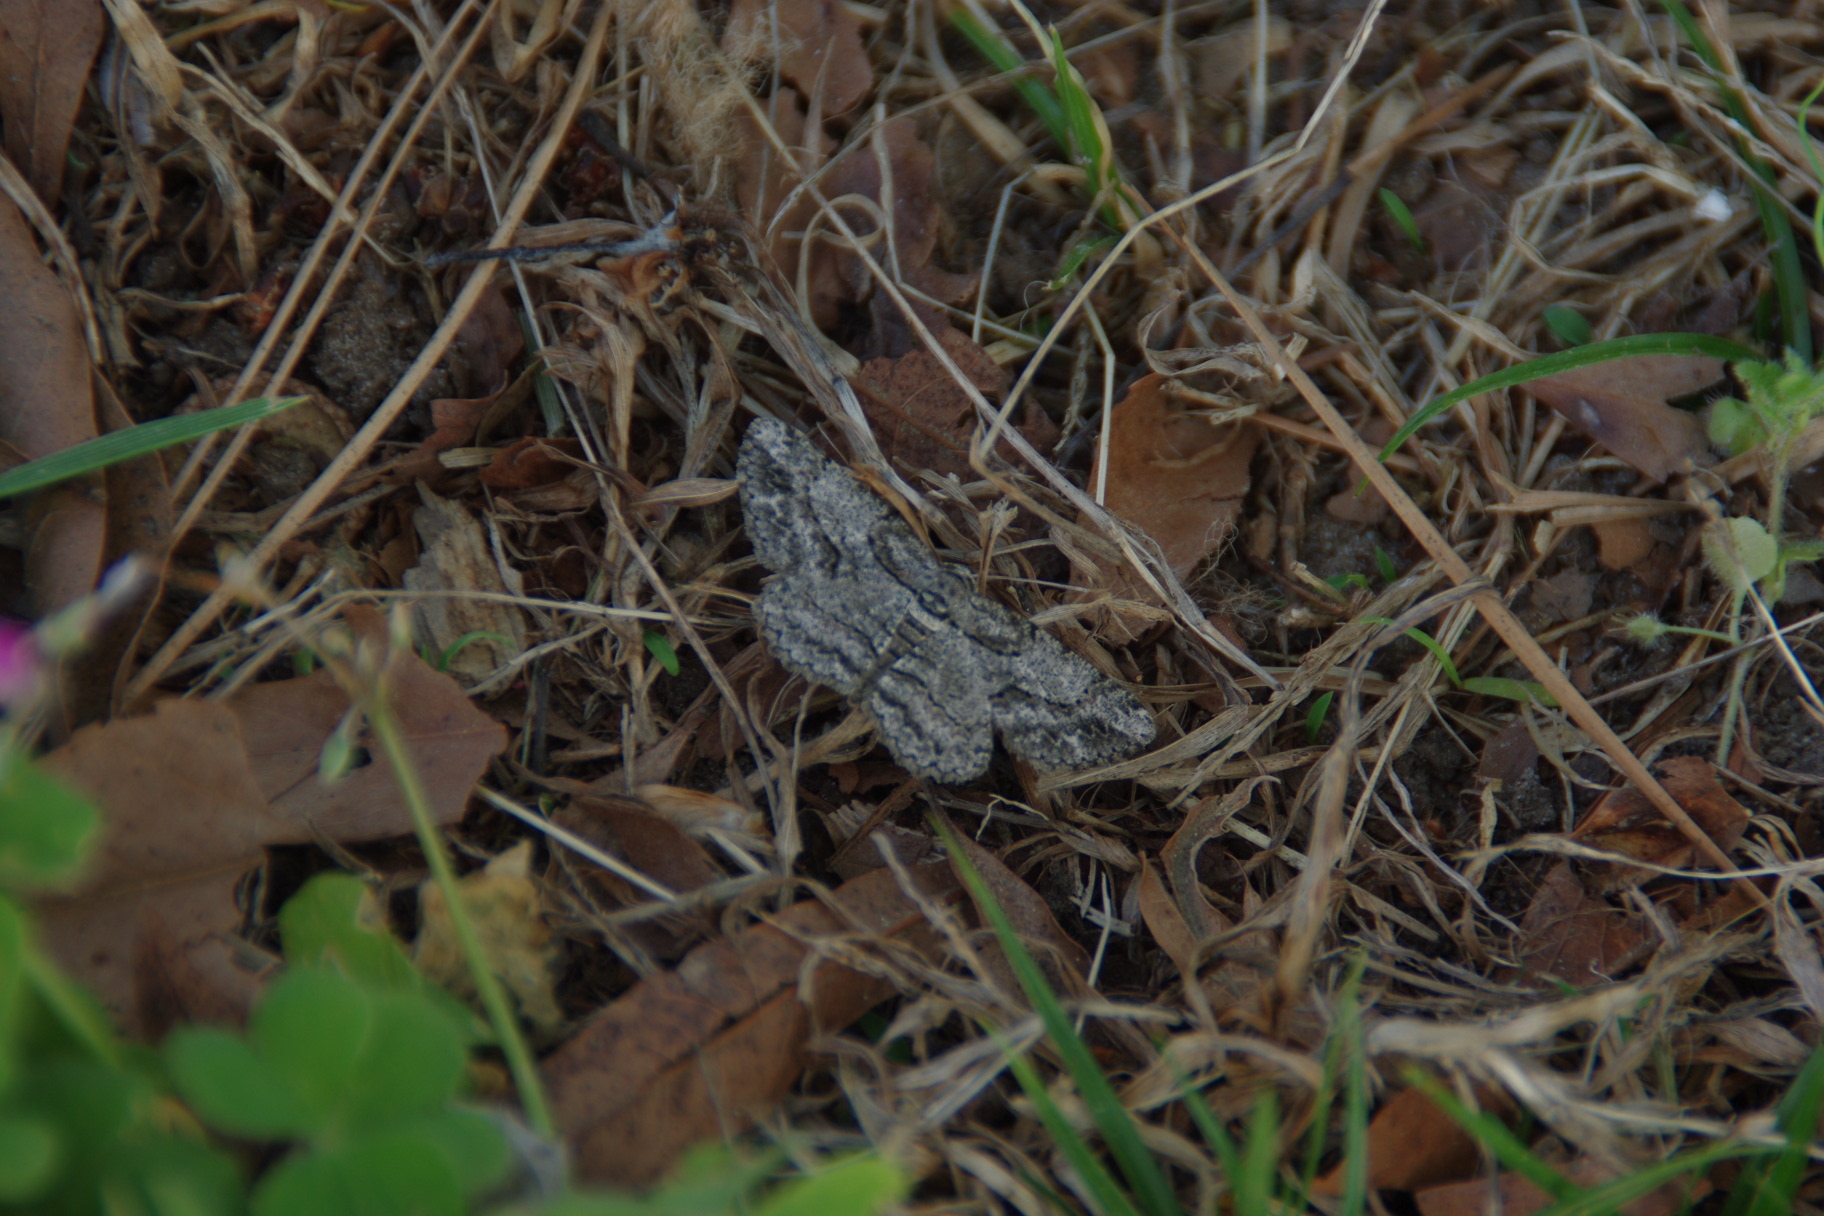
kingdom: Animalia
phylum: Arthropoda
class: Insecta
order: Lepidoptera
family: Geometridae
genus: Anavitrinella
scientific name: Anavitrinella pampinaria
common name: Common gray
